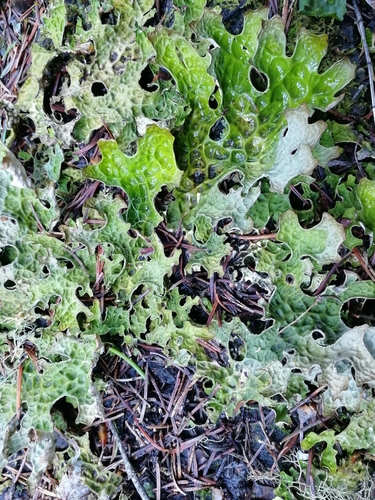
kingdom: Fungi
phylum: Ascomycota
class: Lecanoromycetes
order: Peltigerales
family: Lobariaceae
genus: Lobaria
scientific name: Lobaria pulmonaria
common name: Lungwort
